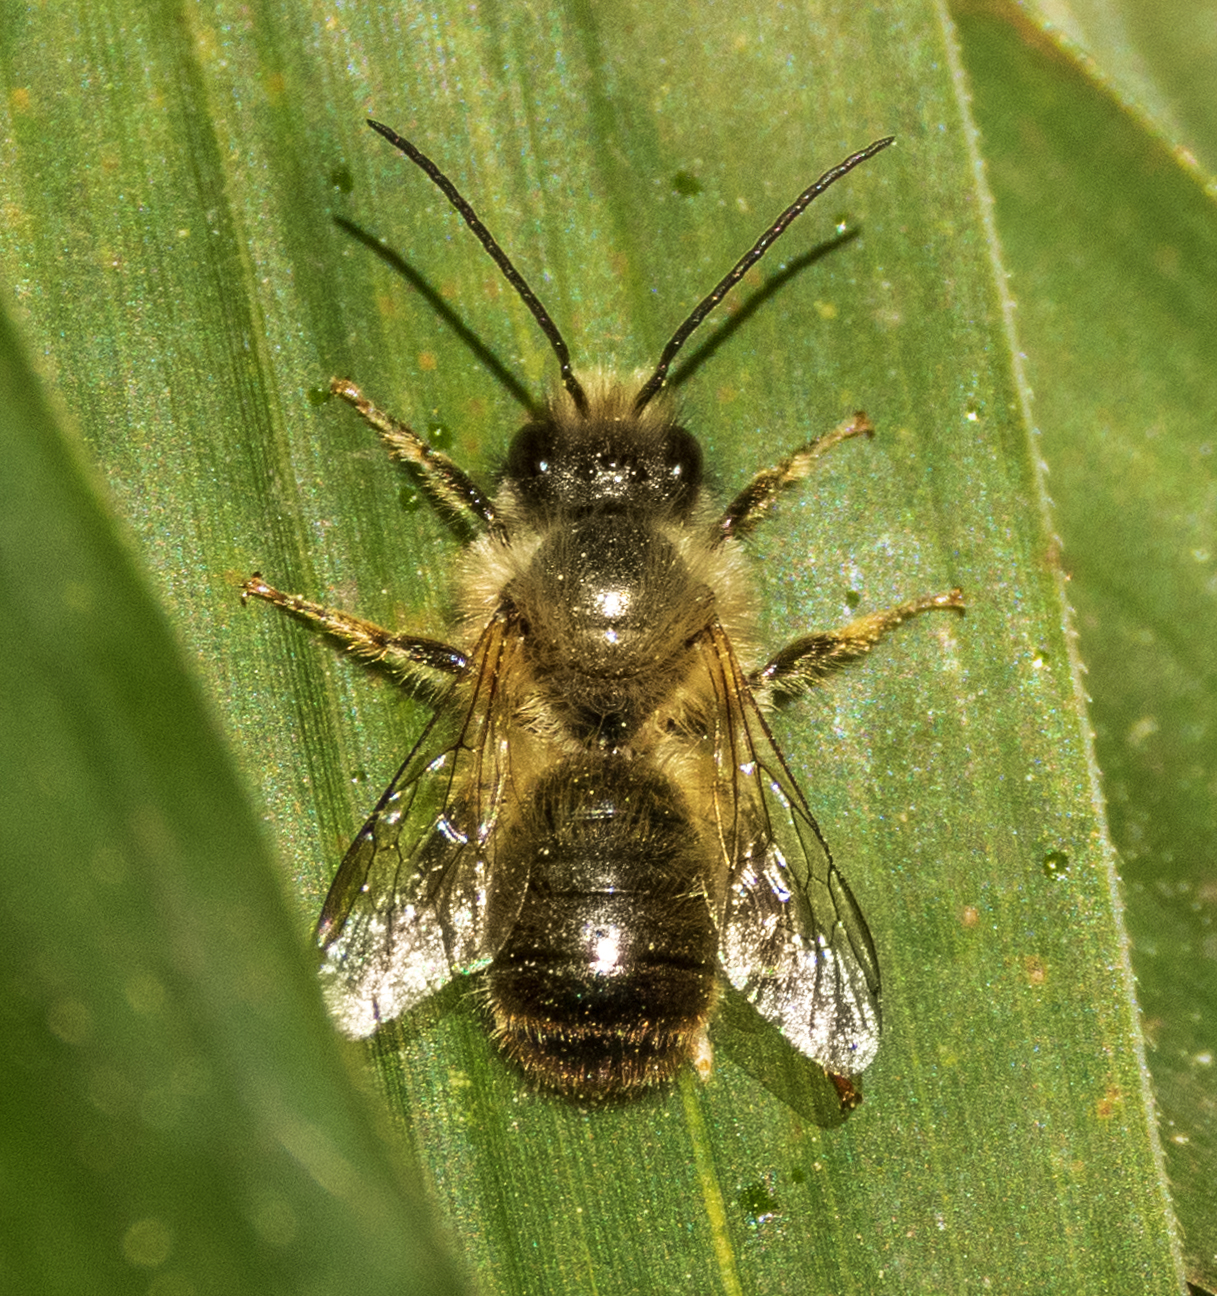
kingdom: Animalia
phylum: Arthropoda
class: Insecta
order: Hymenoptera
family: Megachilidae
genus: Osmia
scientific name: Osmia
